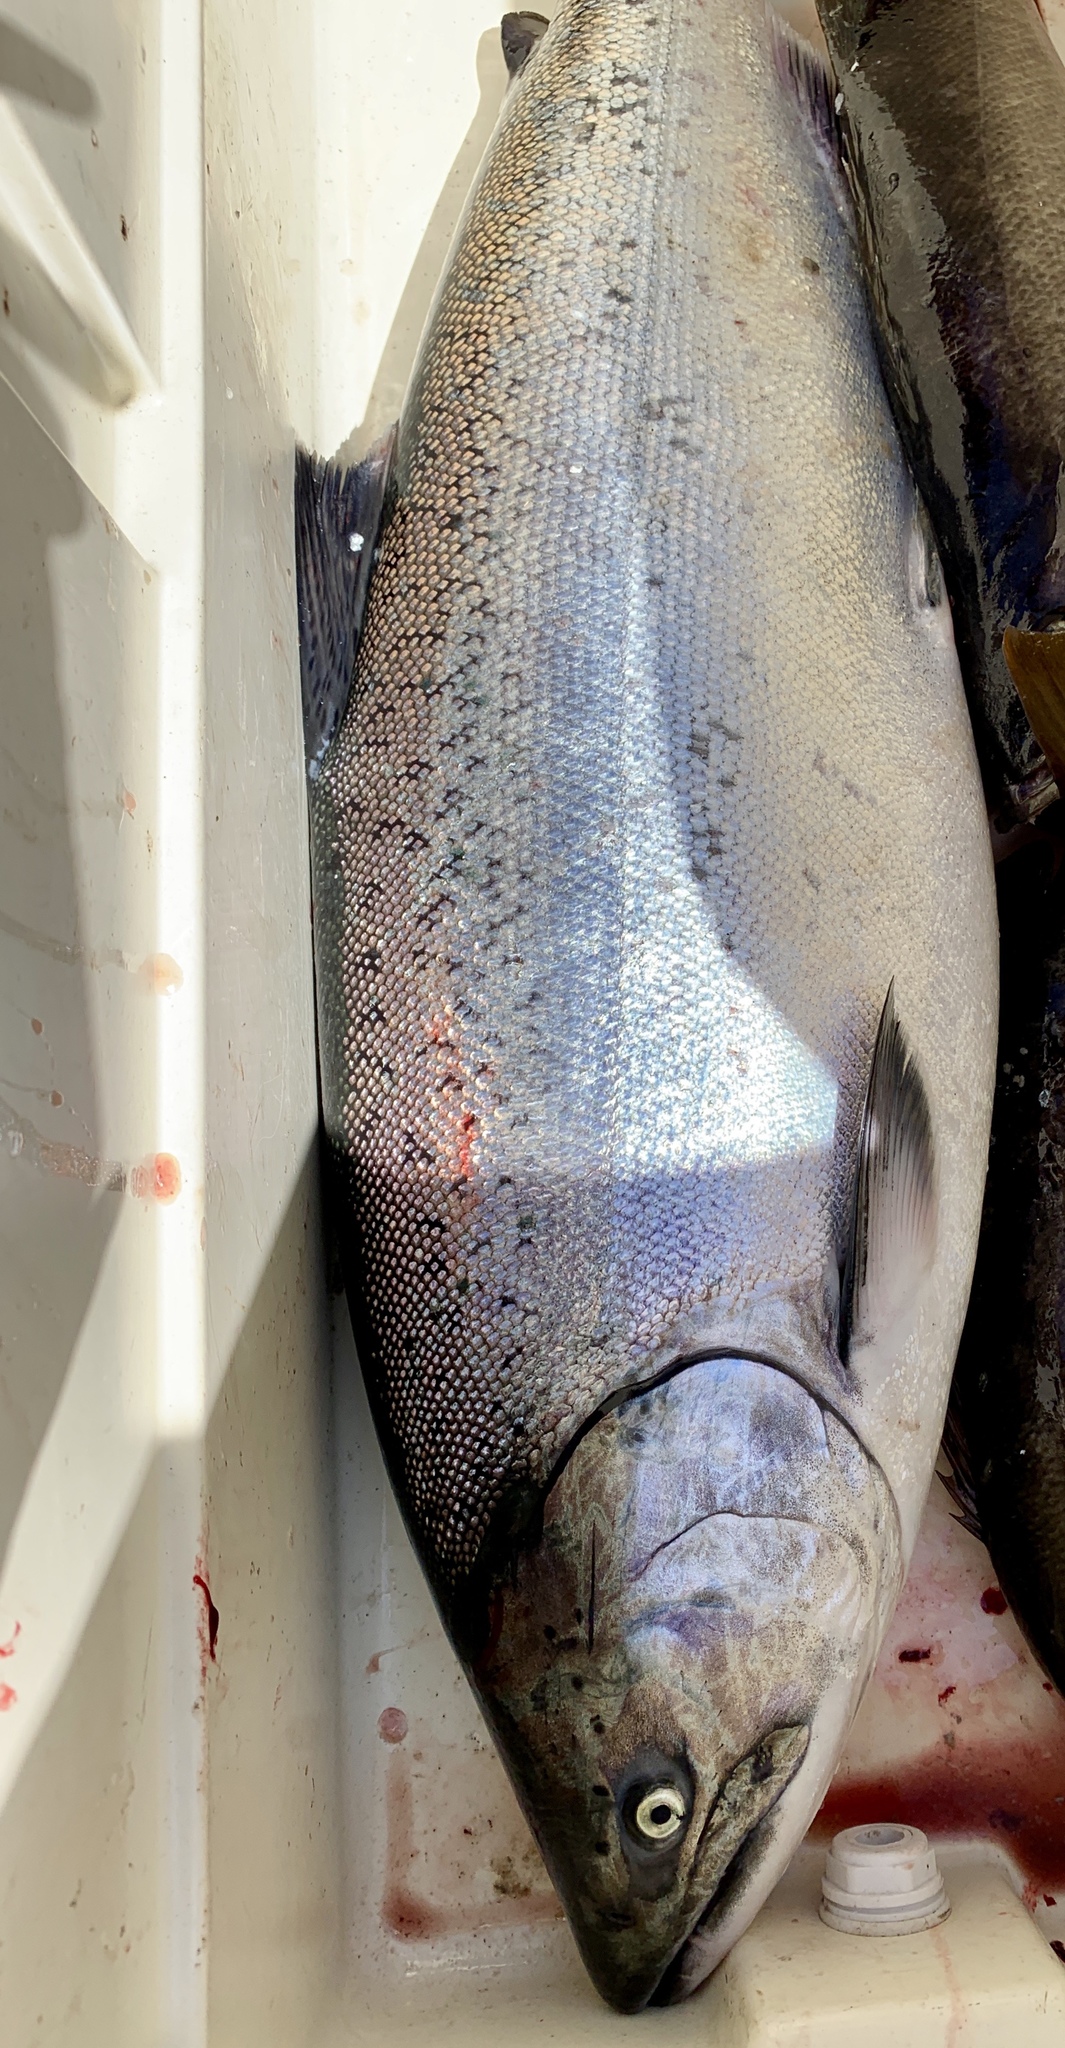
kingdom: Animalia
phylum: Chordata
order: Salmoniformes
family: Salmonidae
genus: Oncorhynchus
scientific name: Oncorhynchus tshawytscha
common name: Chinook salmon
